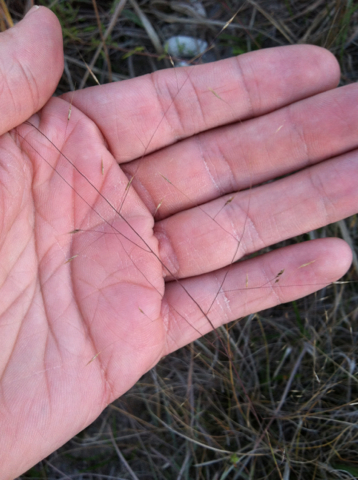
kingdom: Plantae
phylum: Tracheophyta
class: Liliopsida
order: Poales
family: Poaceae
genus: Muhlenbergia
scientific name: Muhlenbergia reverchonii
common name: Seep muhly
